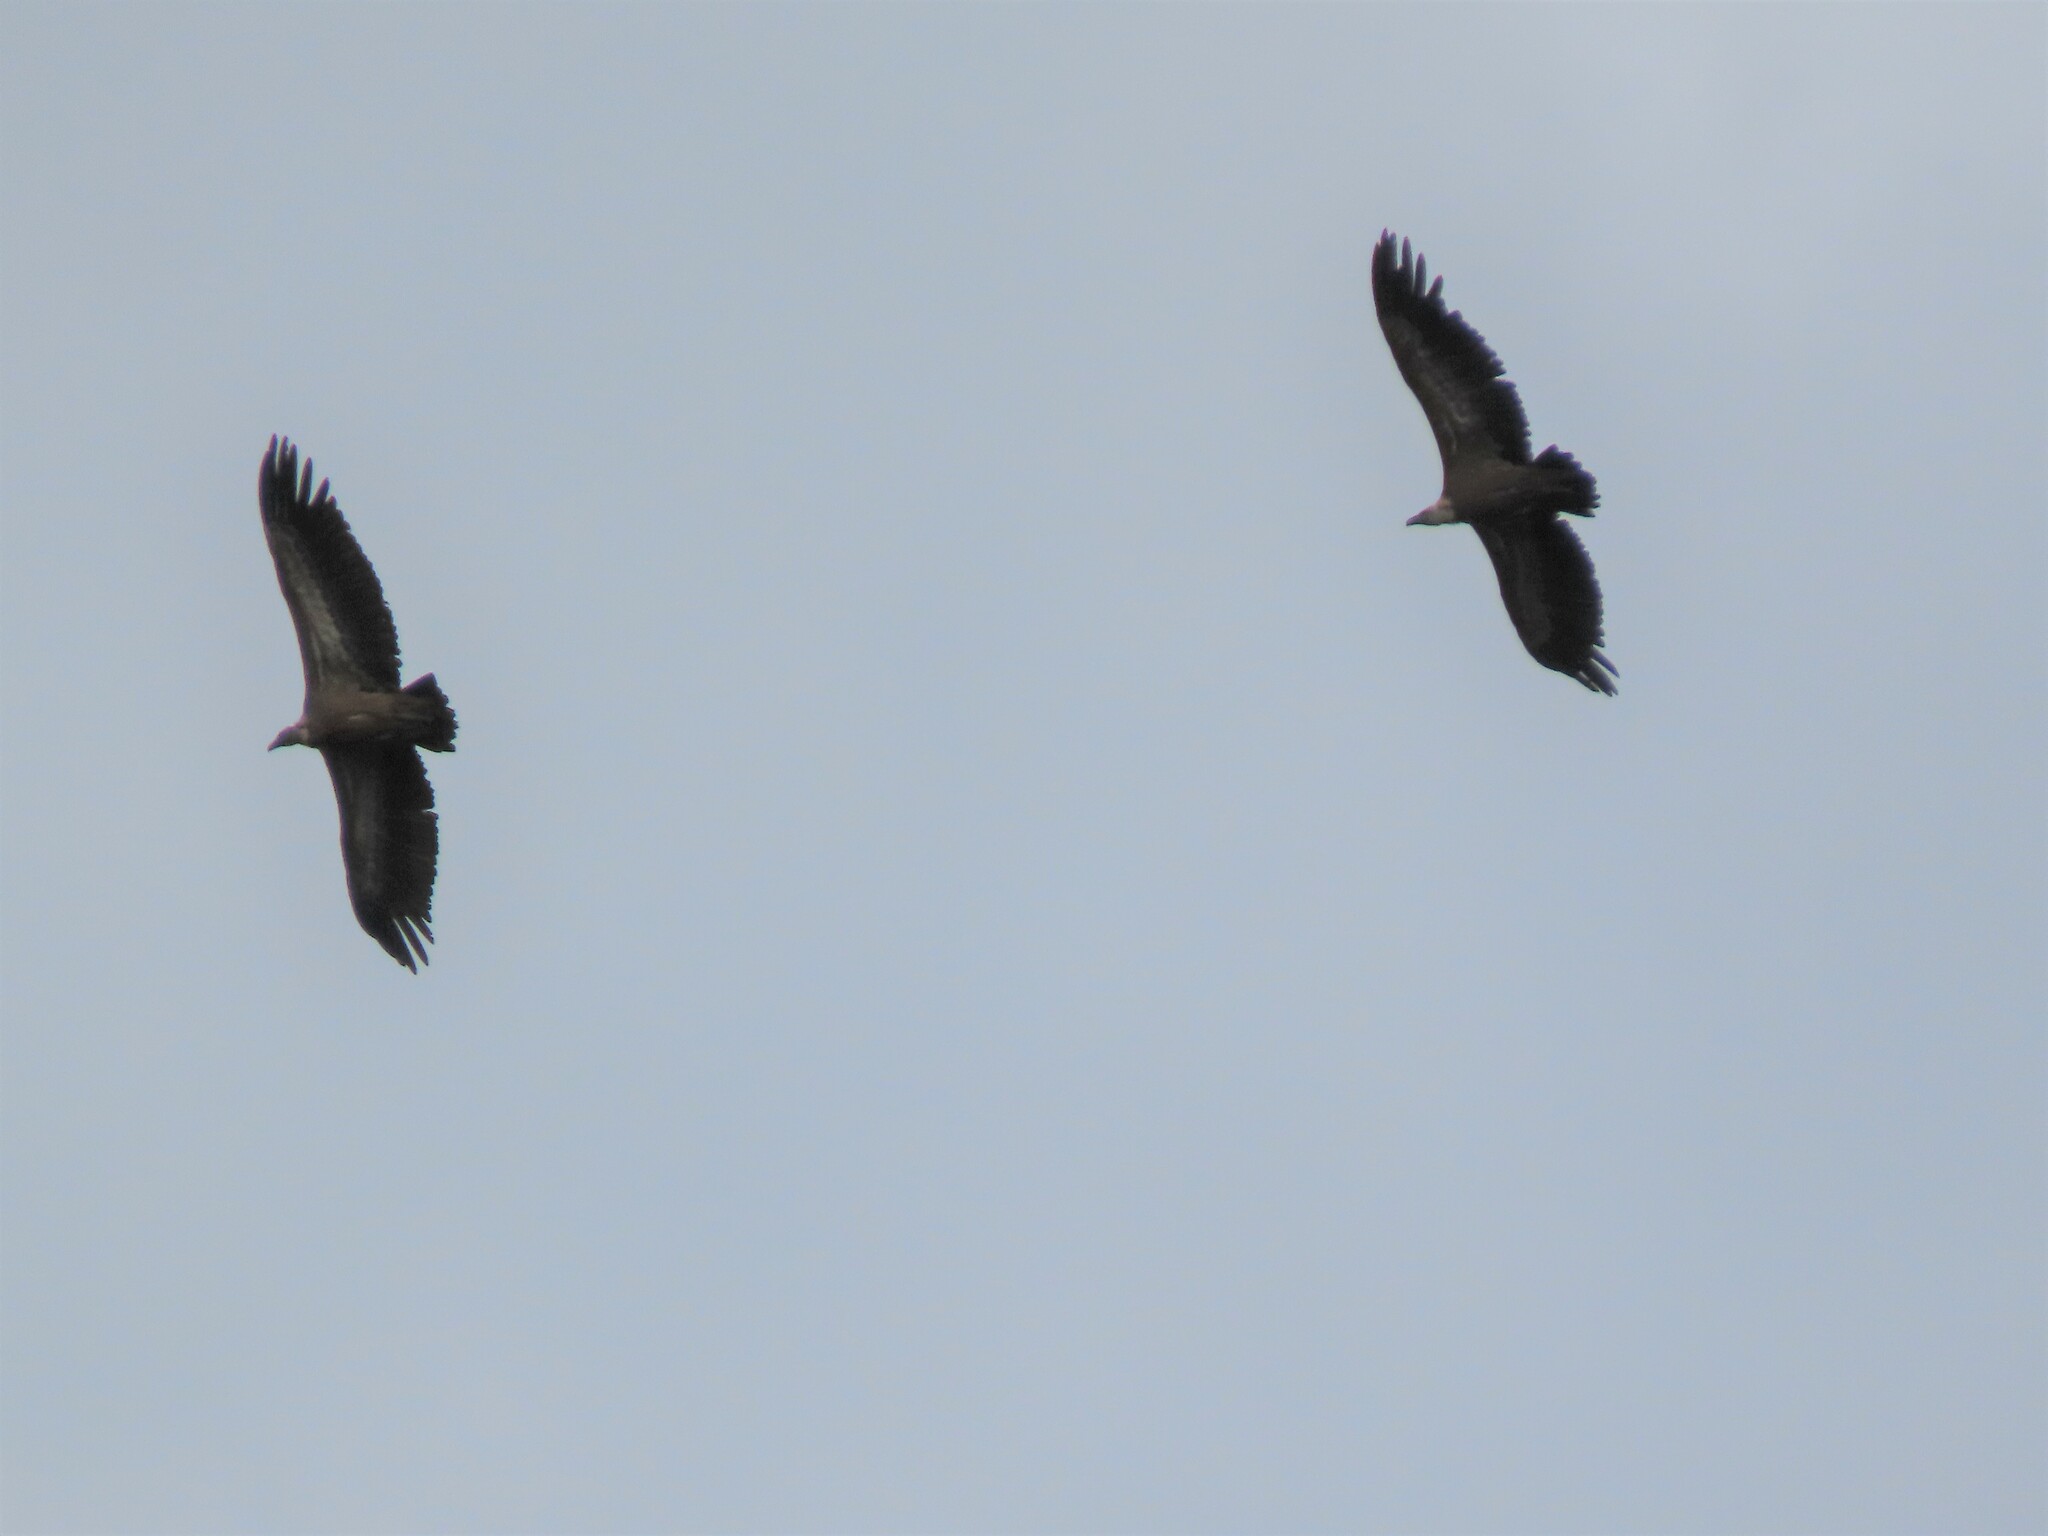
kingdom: Animalia
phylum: Chordata
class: Aves
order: Accipitriformes
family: Accipitridae
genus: Gyps
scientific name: Gyps fulvus
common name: Griffon vulture
